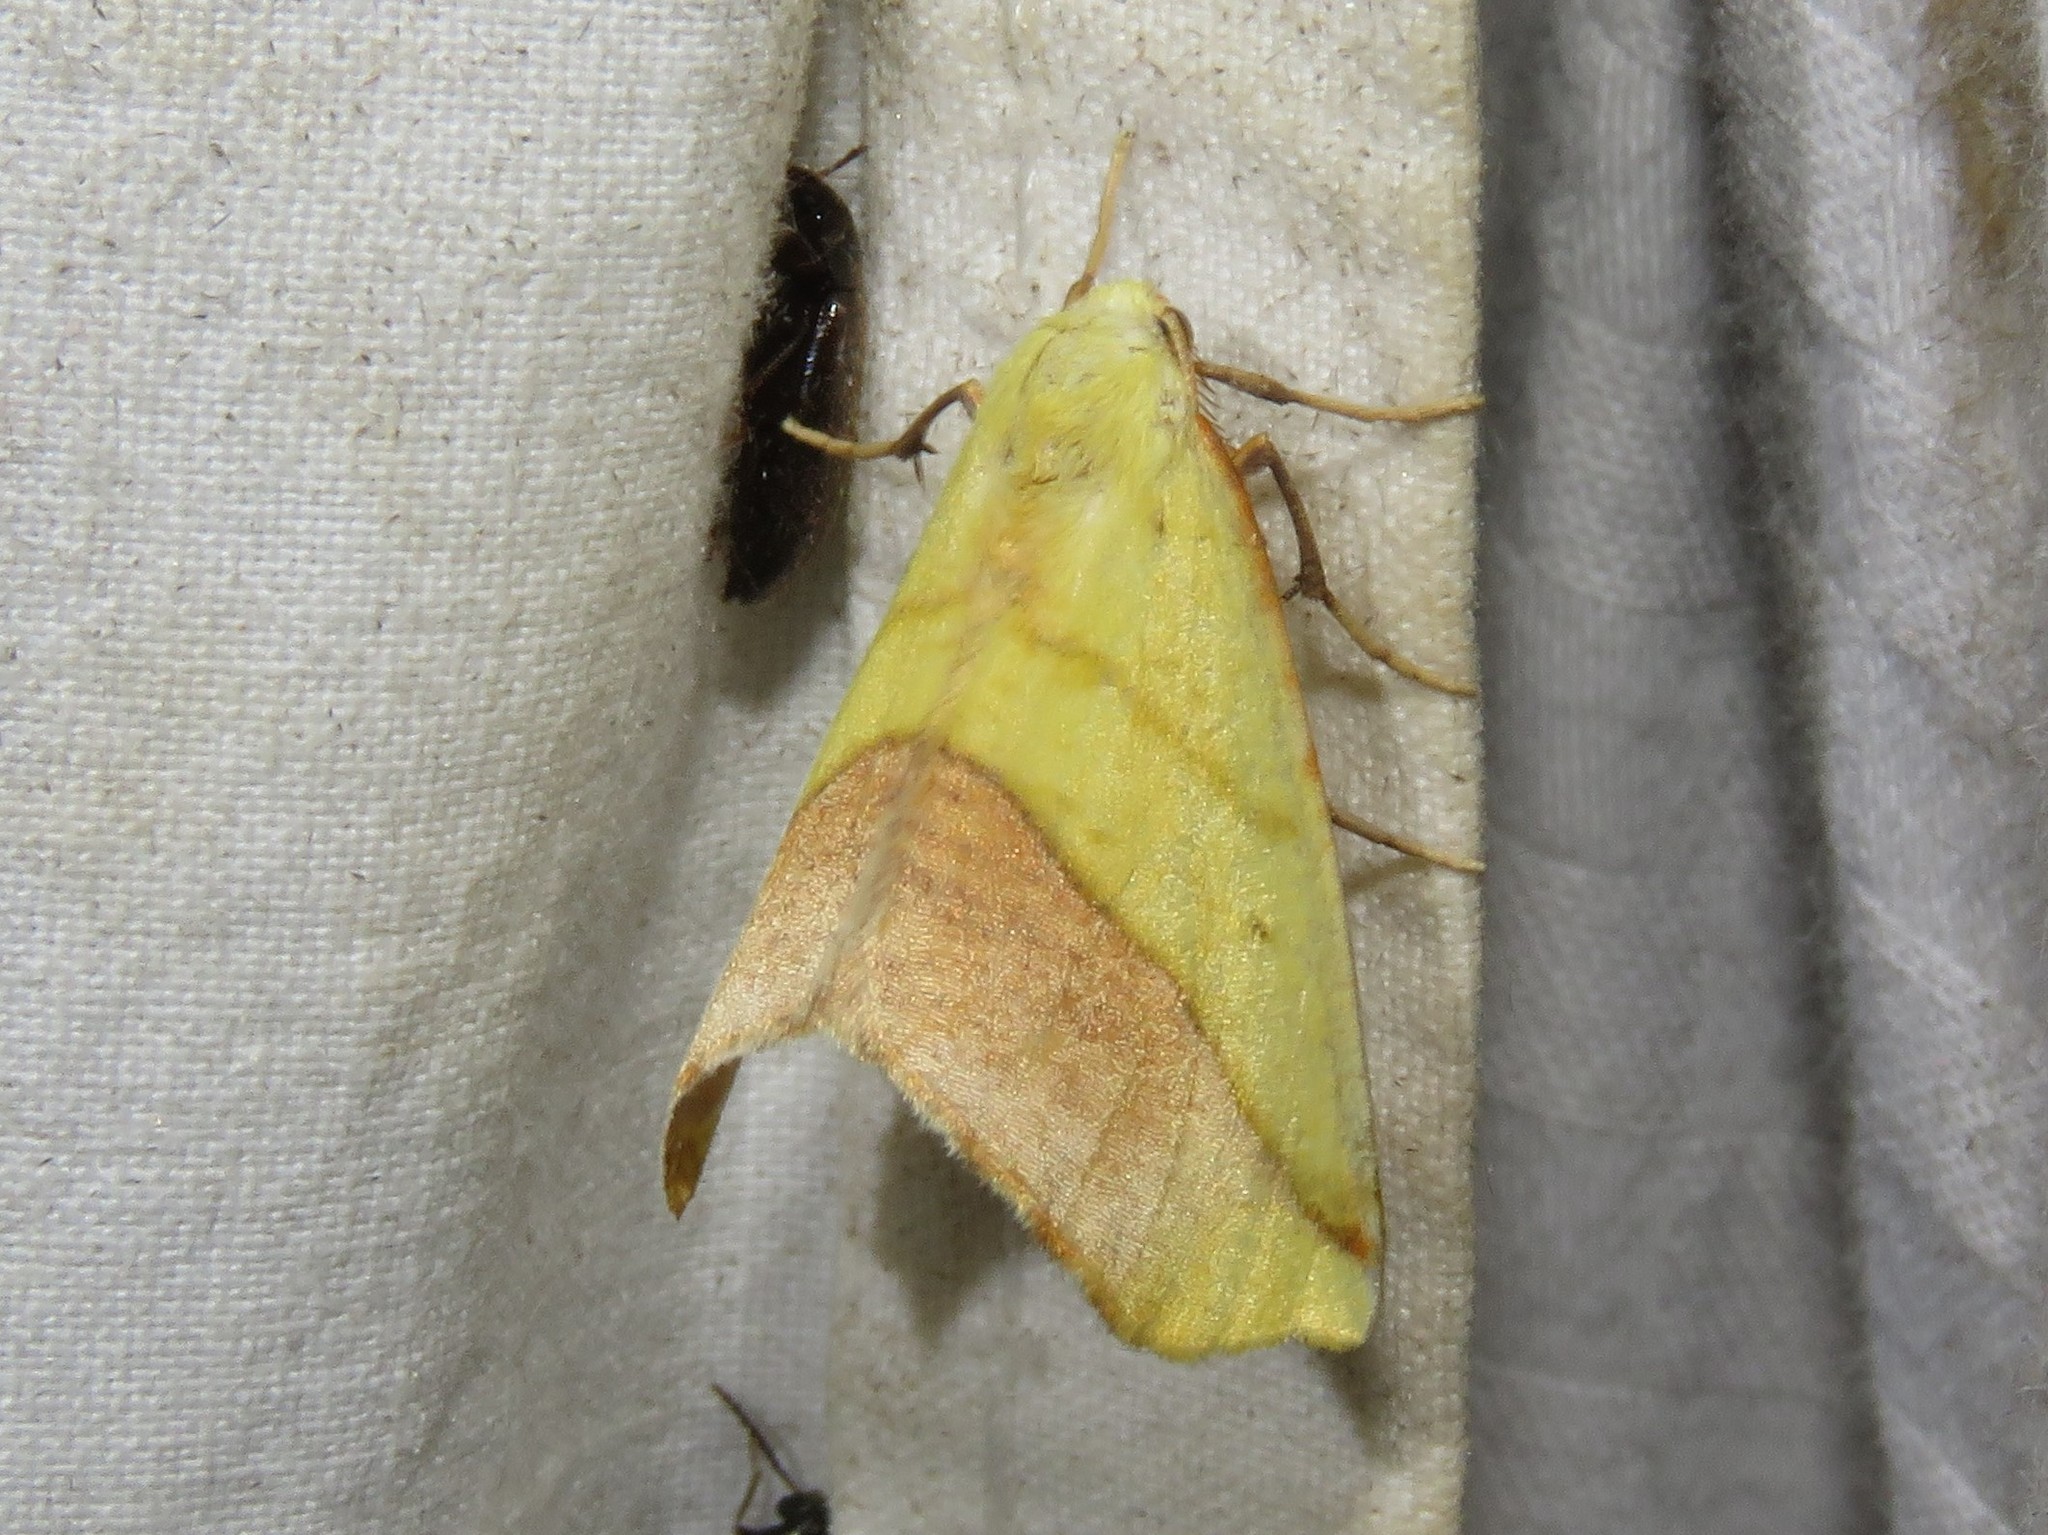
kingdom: Animalia
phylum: Arthropoda
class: Insecta
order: Lepidoptera
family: Geometridae
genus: Sicya
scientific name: Sicya macularia
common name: Sharp-lined yellow
